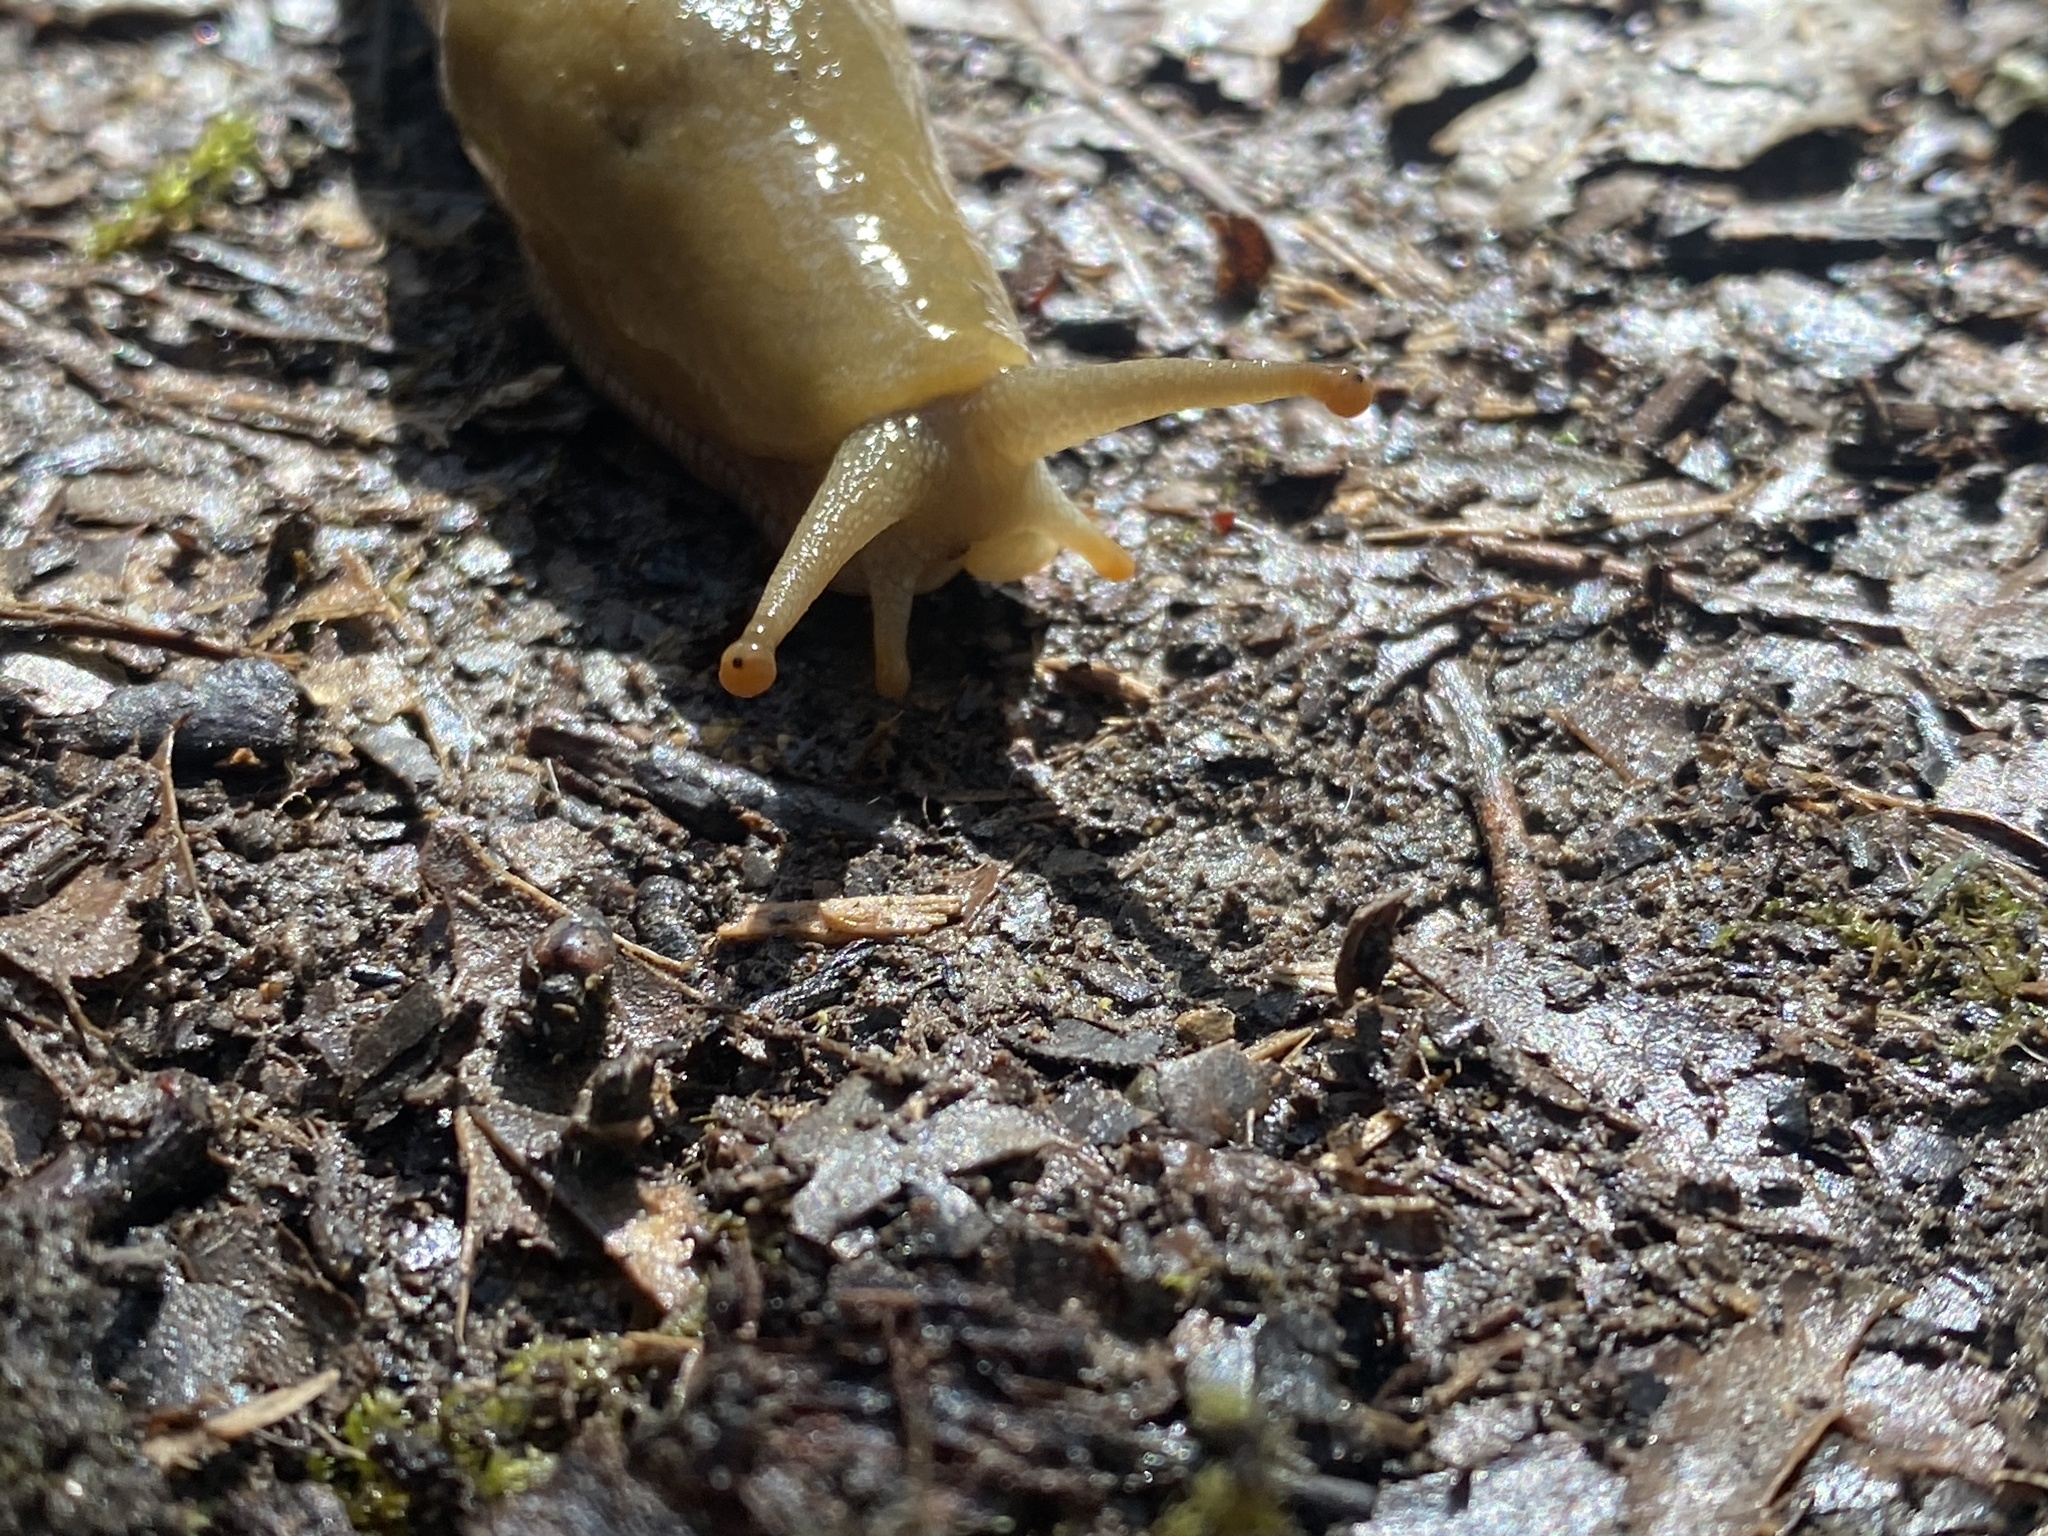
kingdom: Animalia
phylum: Mollusca
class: Gastropoda
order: Stylommatophora
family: Ariolimacidae
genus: Ariolimax
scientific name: Ariolimax buttoni
